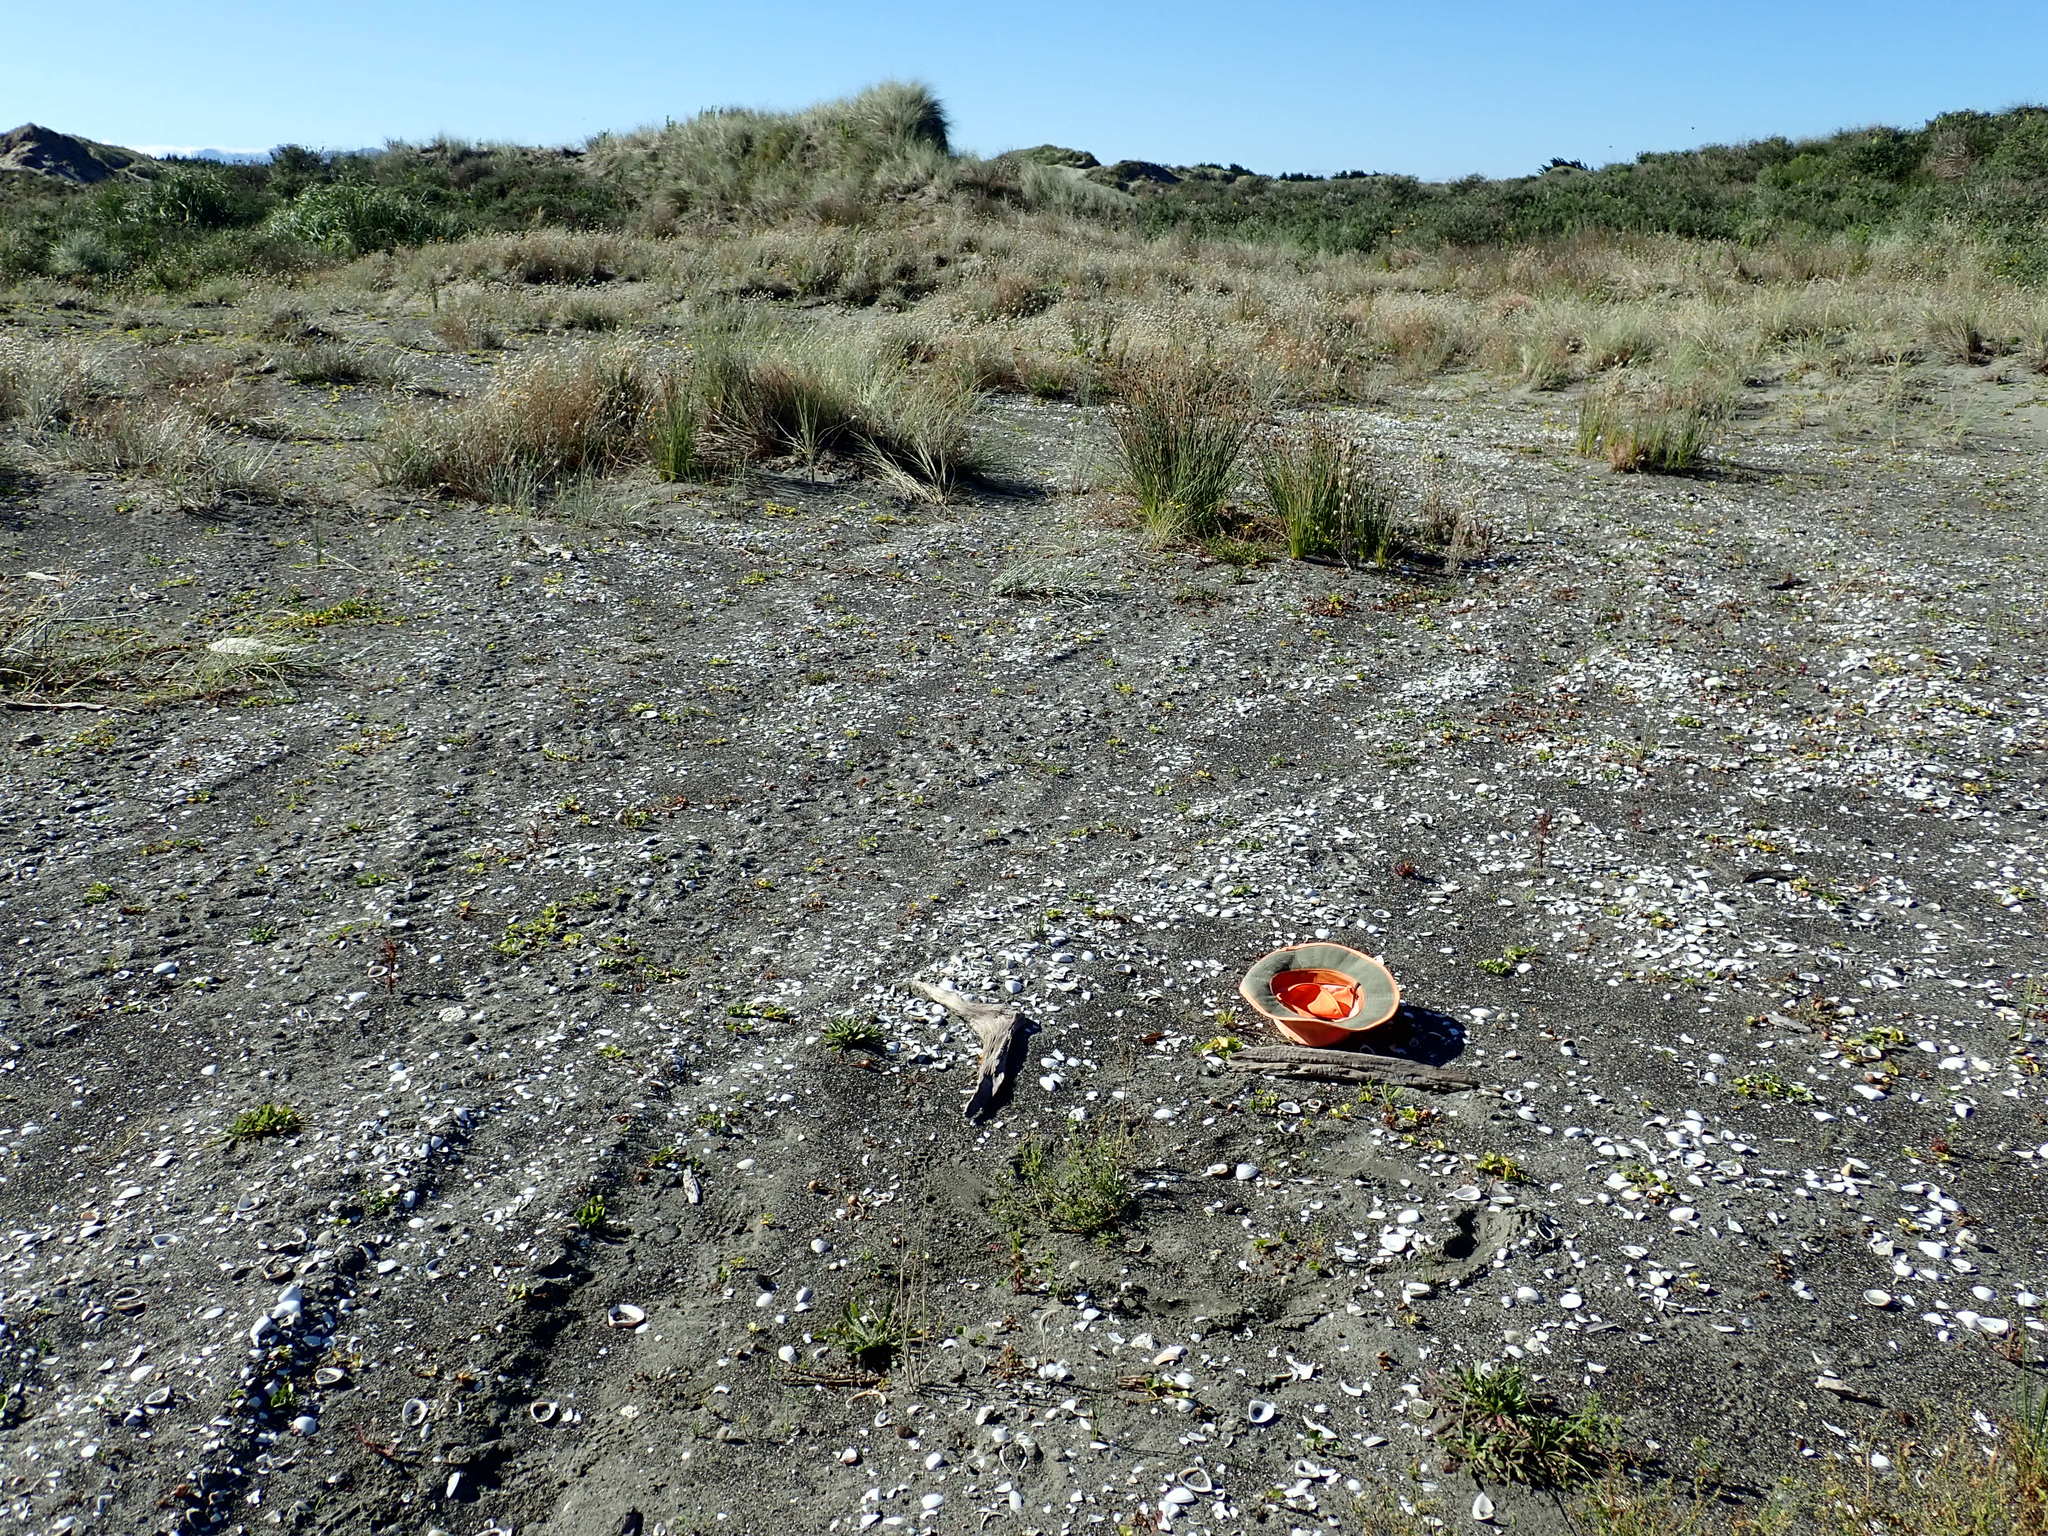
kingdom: Animalia
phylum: Arthropoda
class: Arachnida
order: Araneae
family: Theridiidae
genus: Latrodectus
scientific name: Latrodectus katipo
